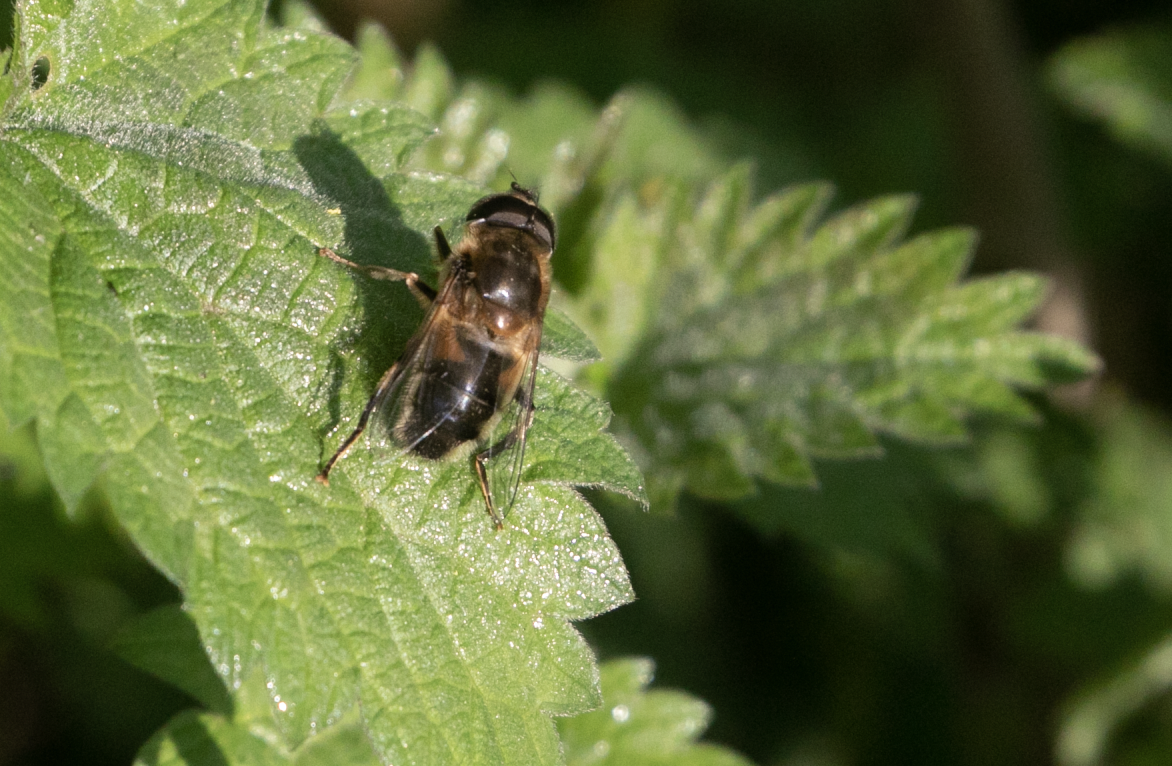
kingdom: Animalia
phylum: Arthropoda
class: Insecta
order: Diptera
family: Syrphidae
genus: Eristalis
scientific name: Eristalis pertinax
